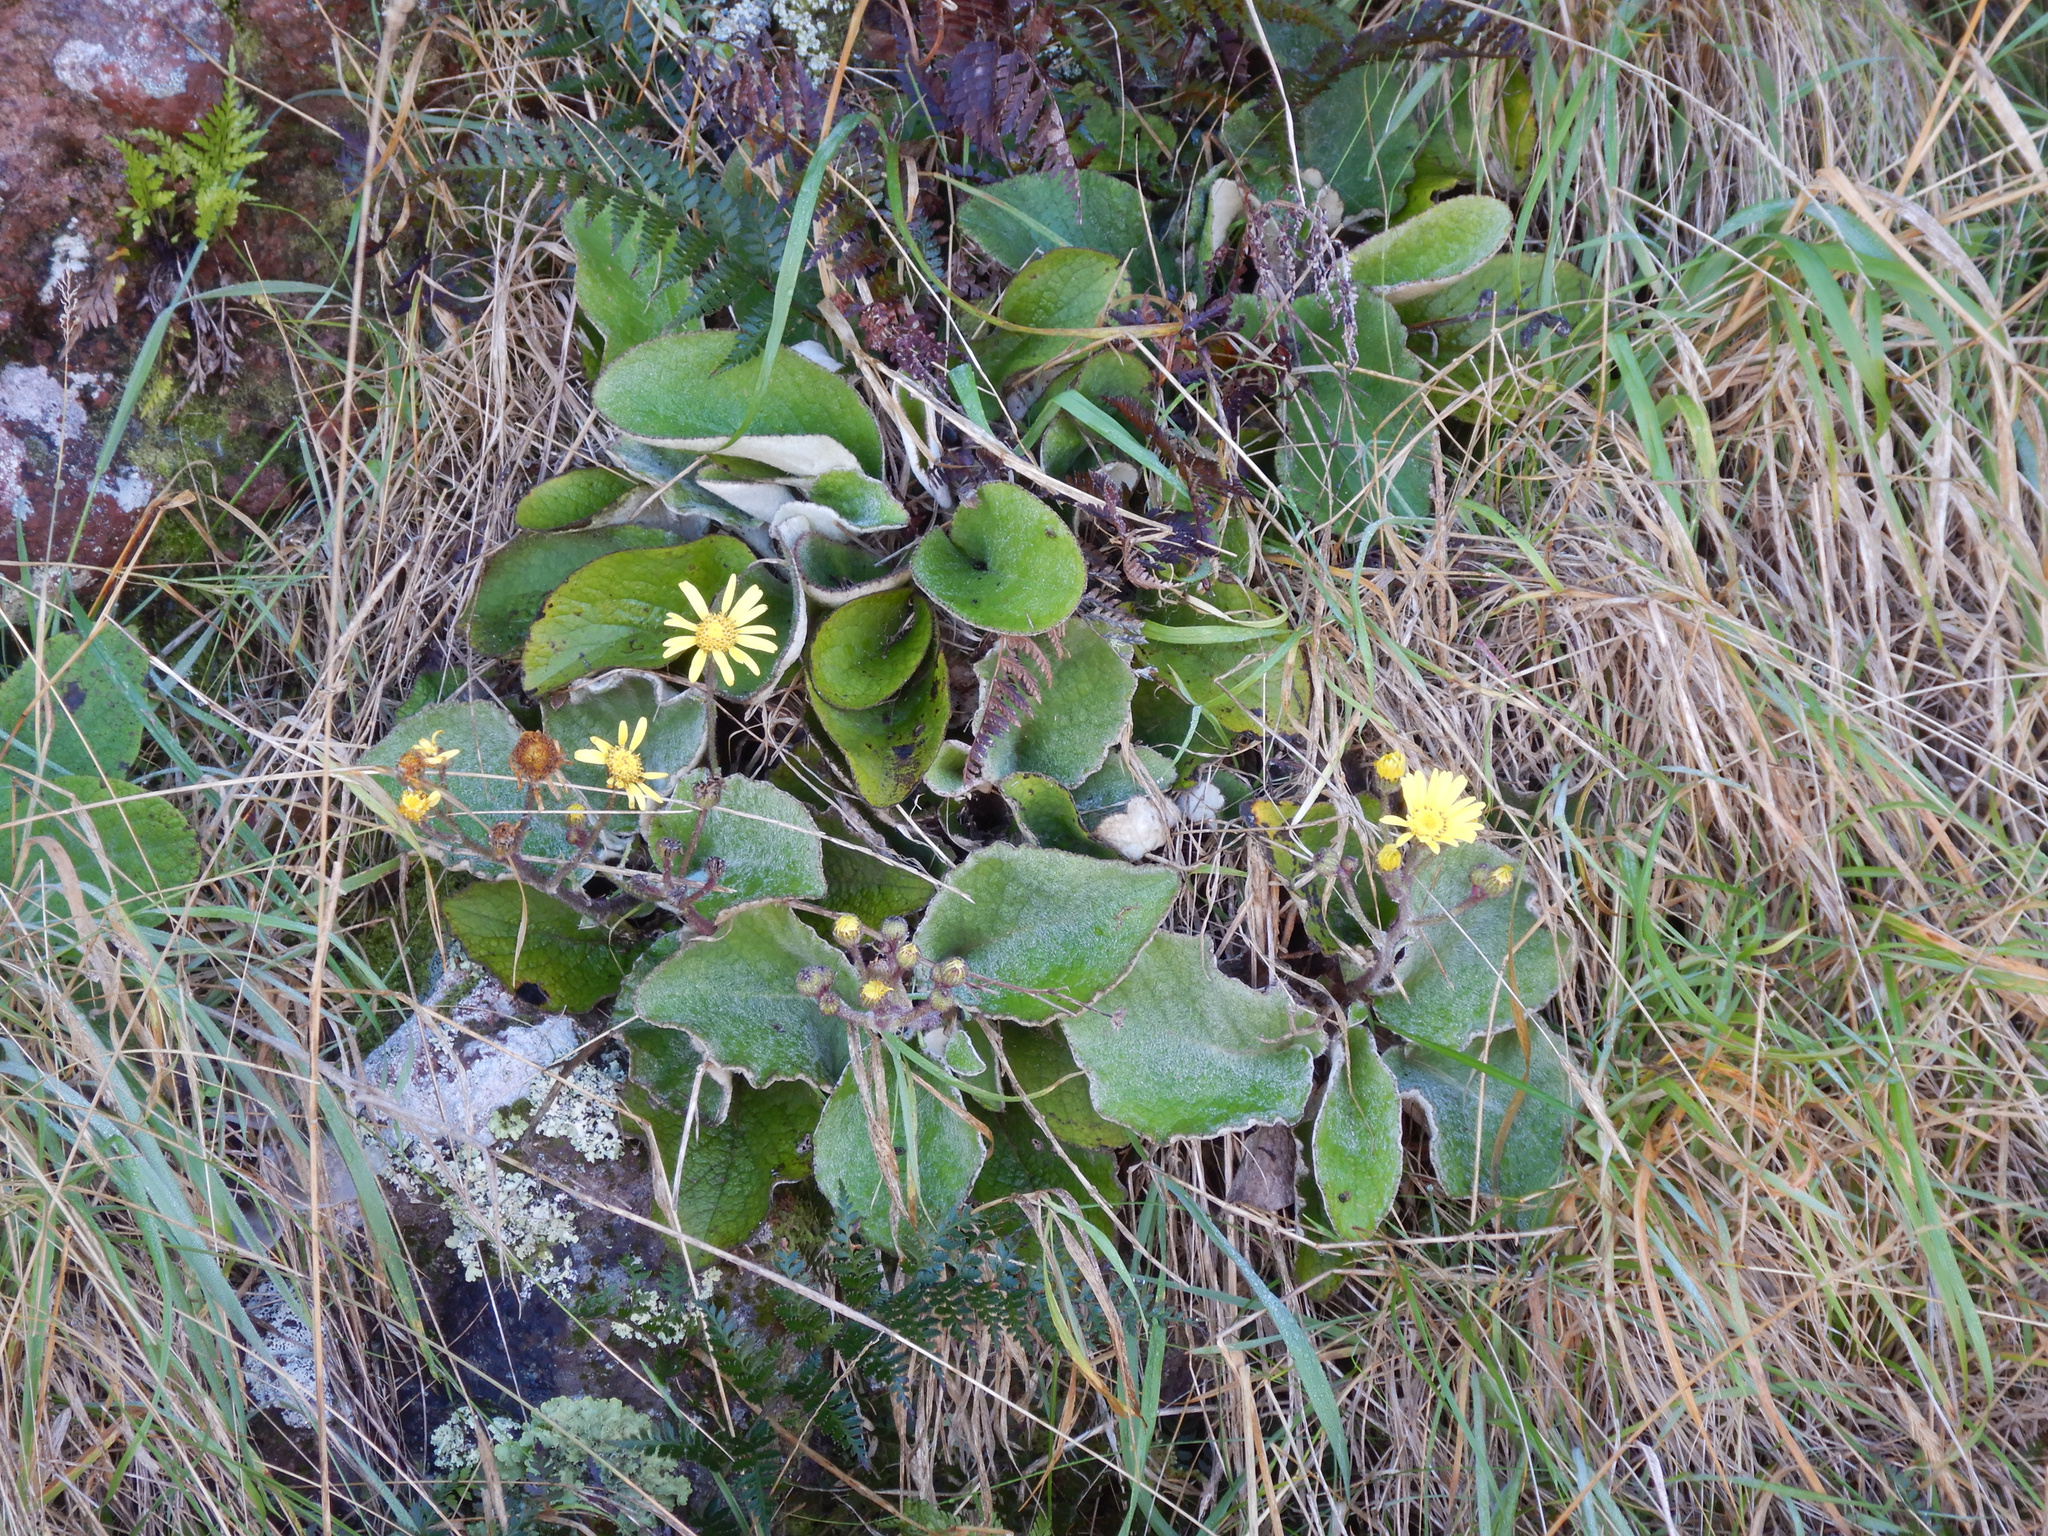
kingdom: Plantae
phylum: Tracheophyta
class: Magnoliopsida
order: Asterales
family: Asteraceae
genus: Brachyglottis
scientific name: Brachyglottis lagopus
